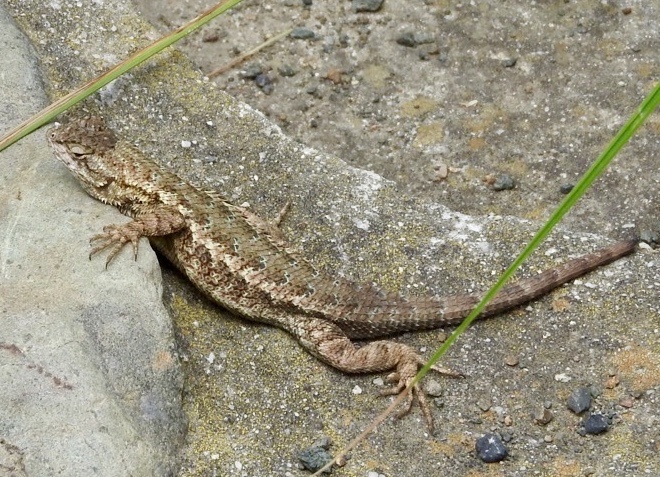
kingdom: Animalia
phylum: Chordata
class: Squamata
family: Phrynosomatidae
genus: Sceloporus
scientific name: Sceloporus occidentalis
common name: Western fence lizard
